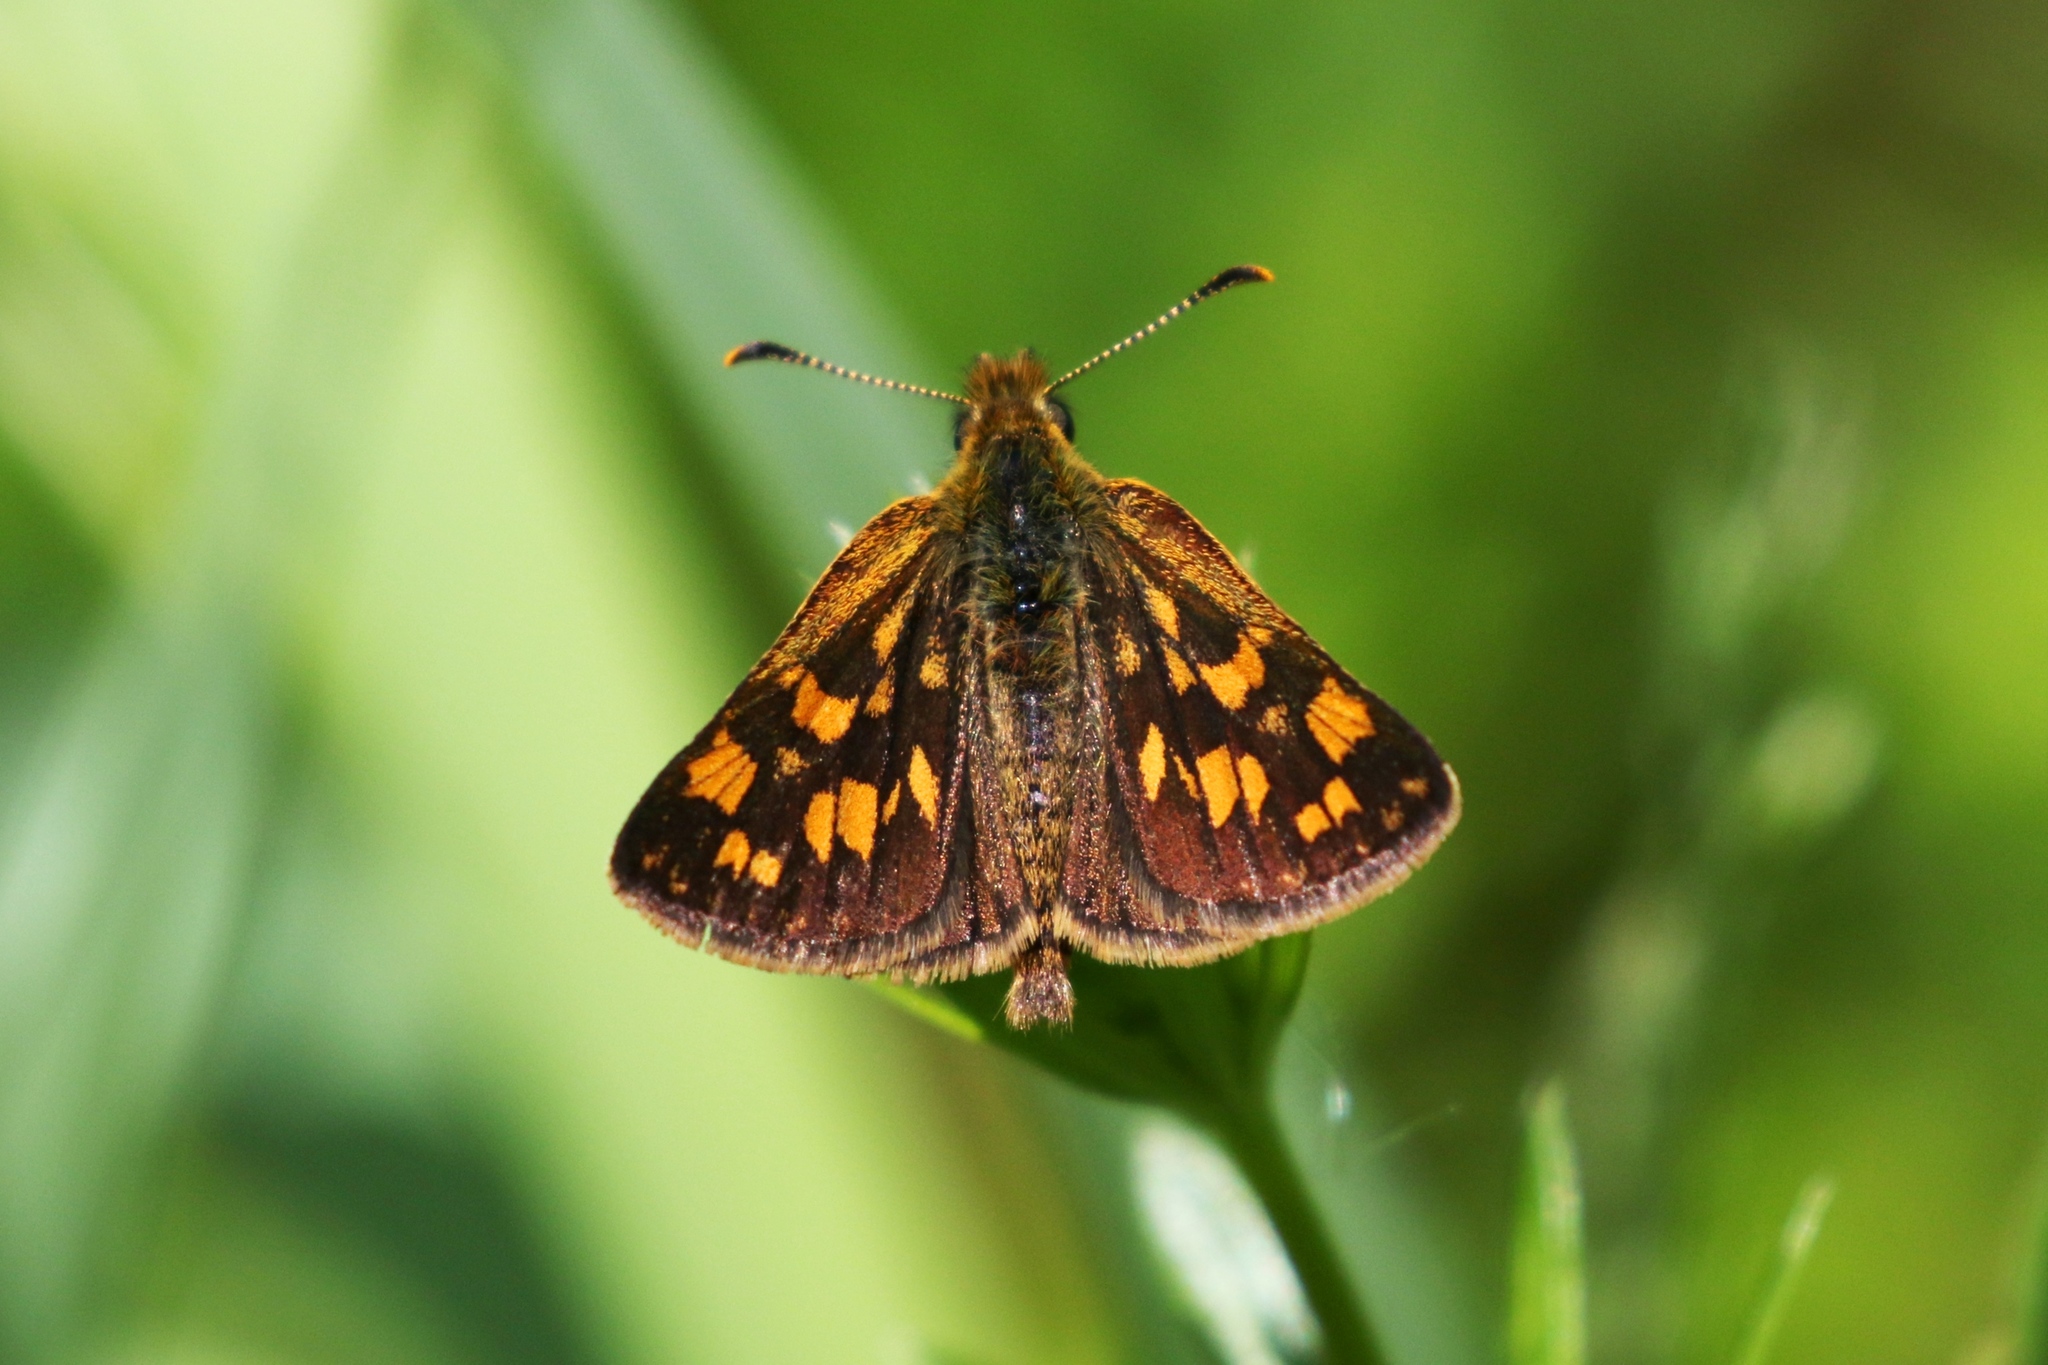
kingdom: Animalia
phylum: Arthropoda
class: Insecta
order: Lepidoptera
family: Hesperiidae
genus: Carterocephalus
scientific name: Carterocephalus mandan
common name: Arctic skipperling
